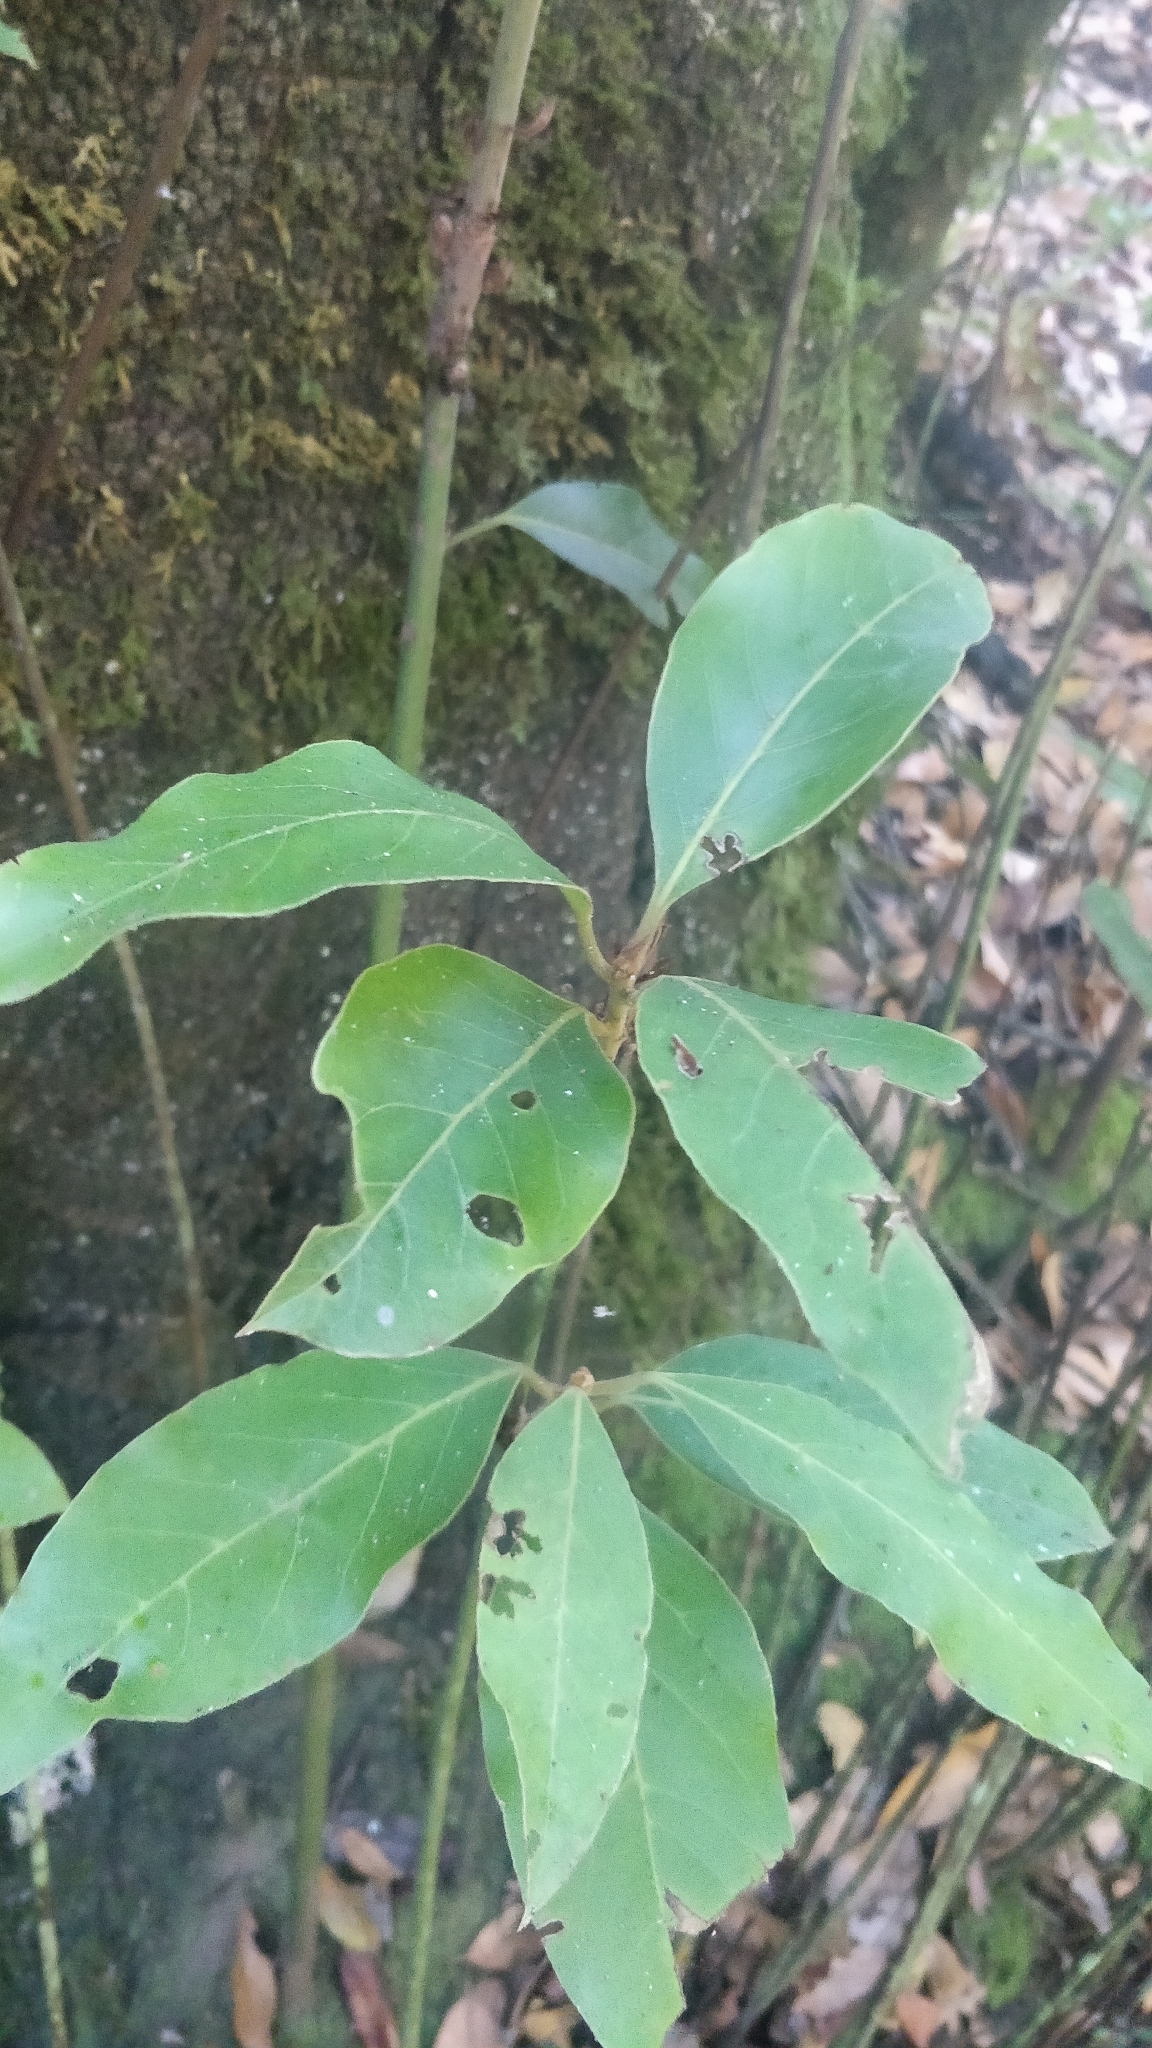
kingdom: Plantae
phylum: Tracheophyta
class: Magnoliopsida
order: Laurales
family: Lauraceae
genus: Laurus
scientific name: Laurus novocanariensis
